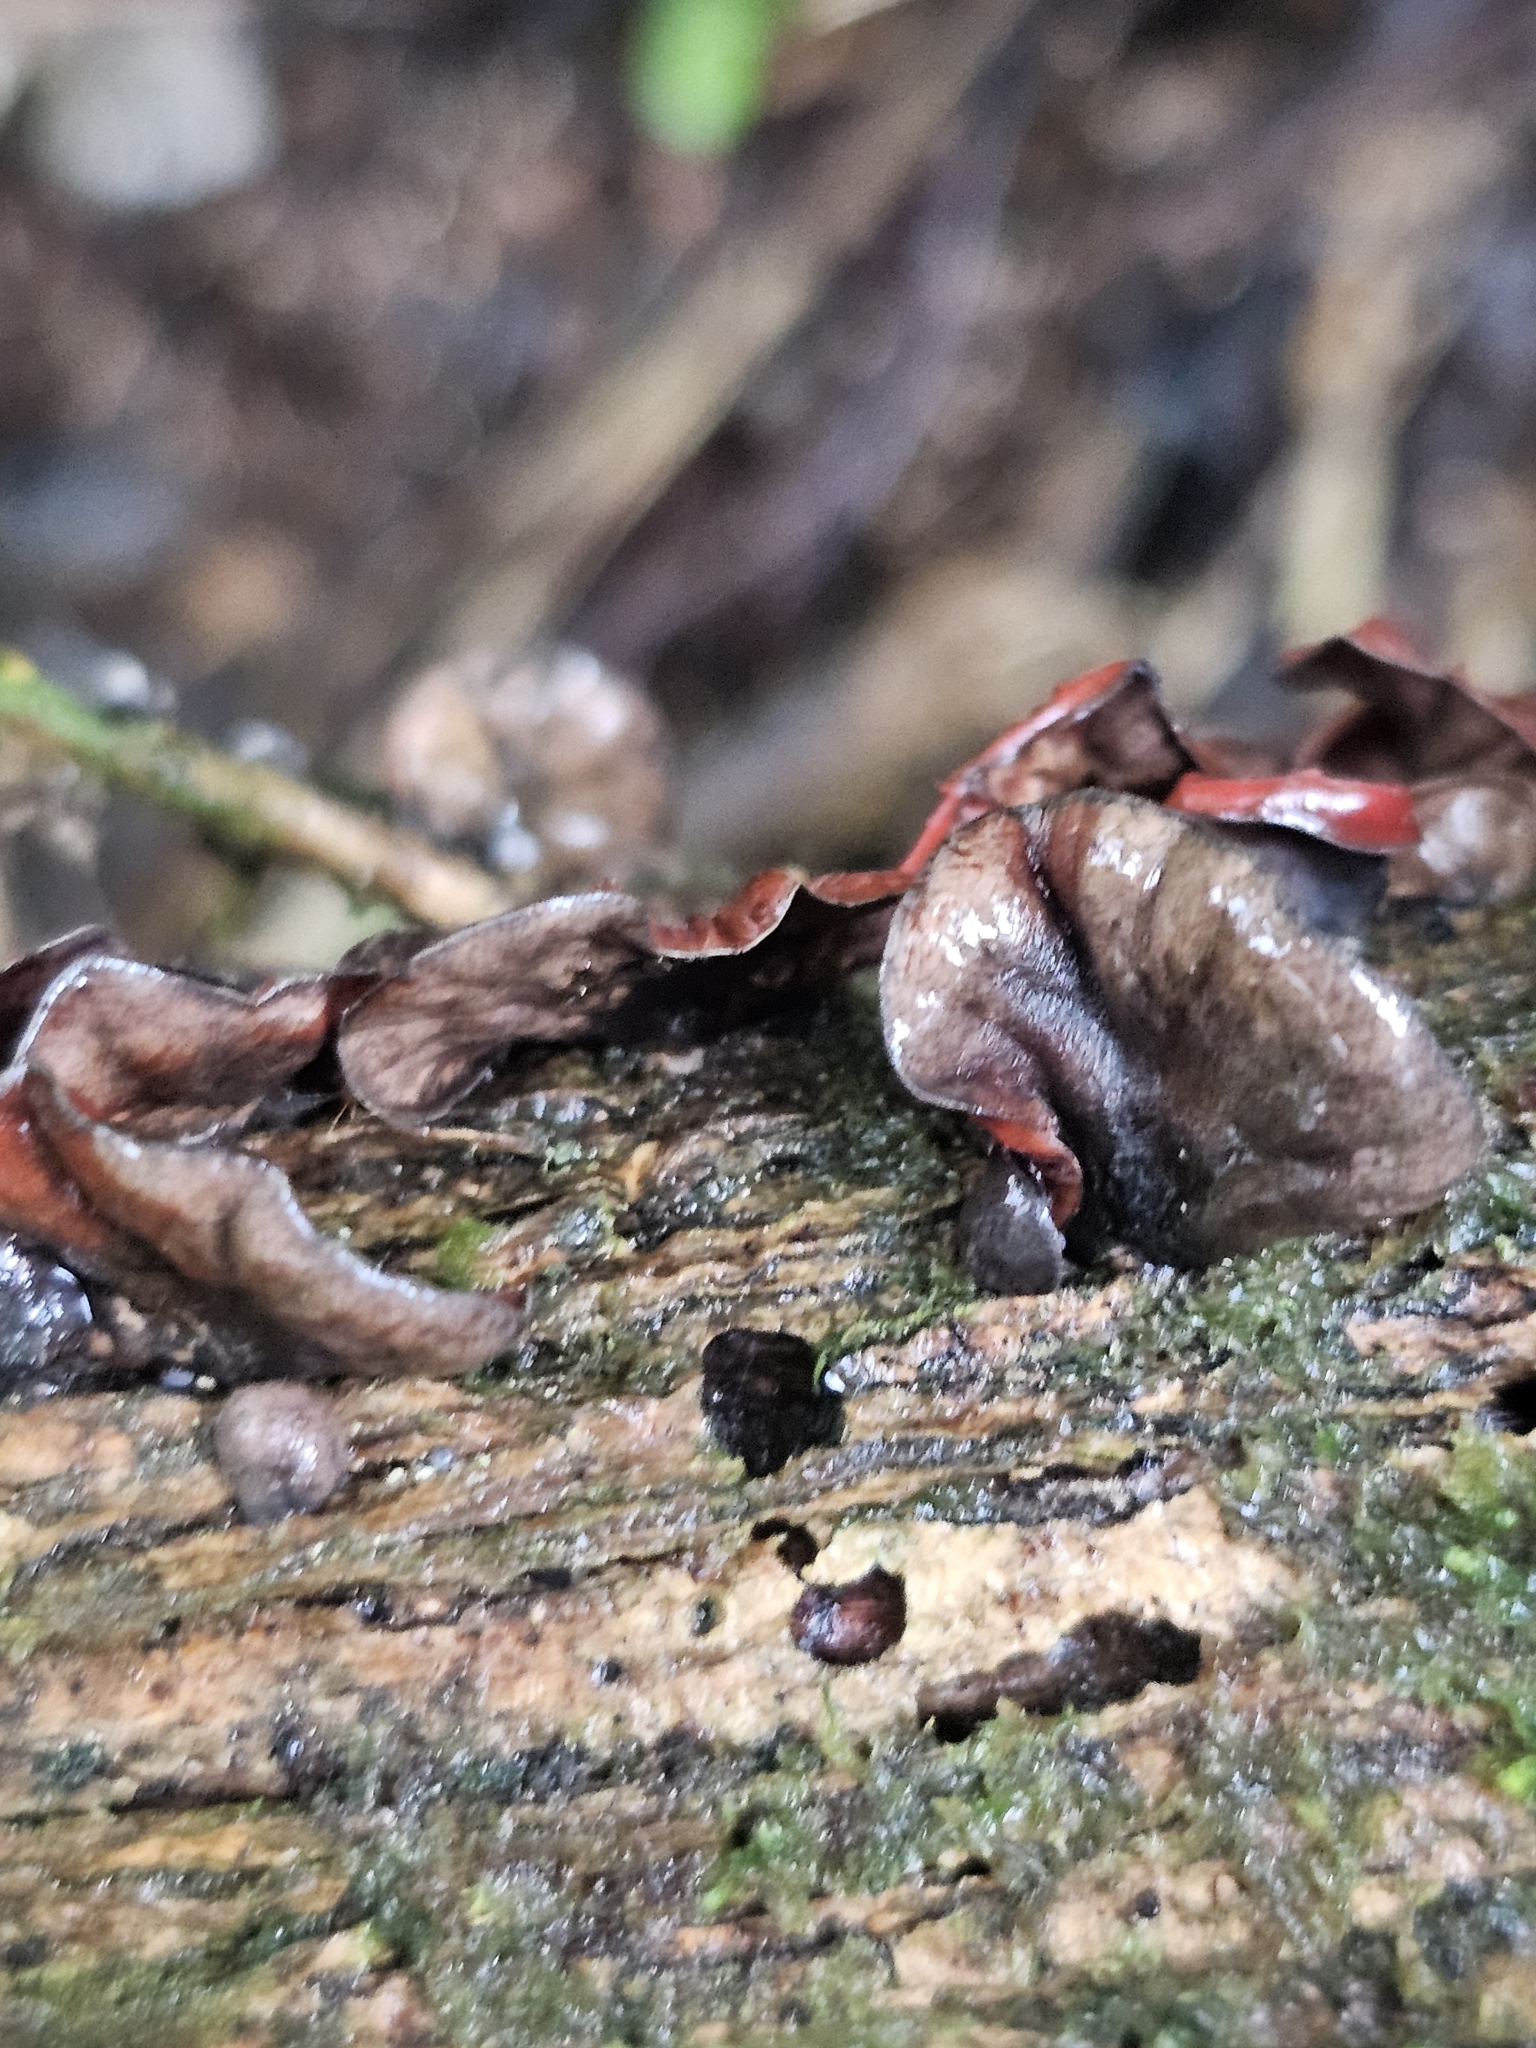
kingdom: Fungi
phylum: Basidiomycota
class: Agaricomycetes
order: Agaricales
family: Omphalotaceae
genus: Anthracophyllum
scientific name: Anthracophyllum archeri
